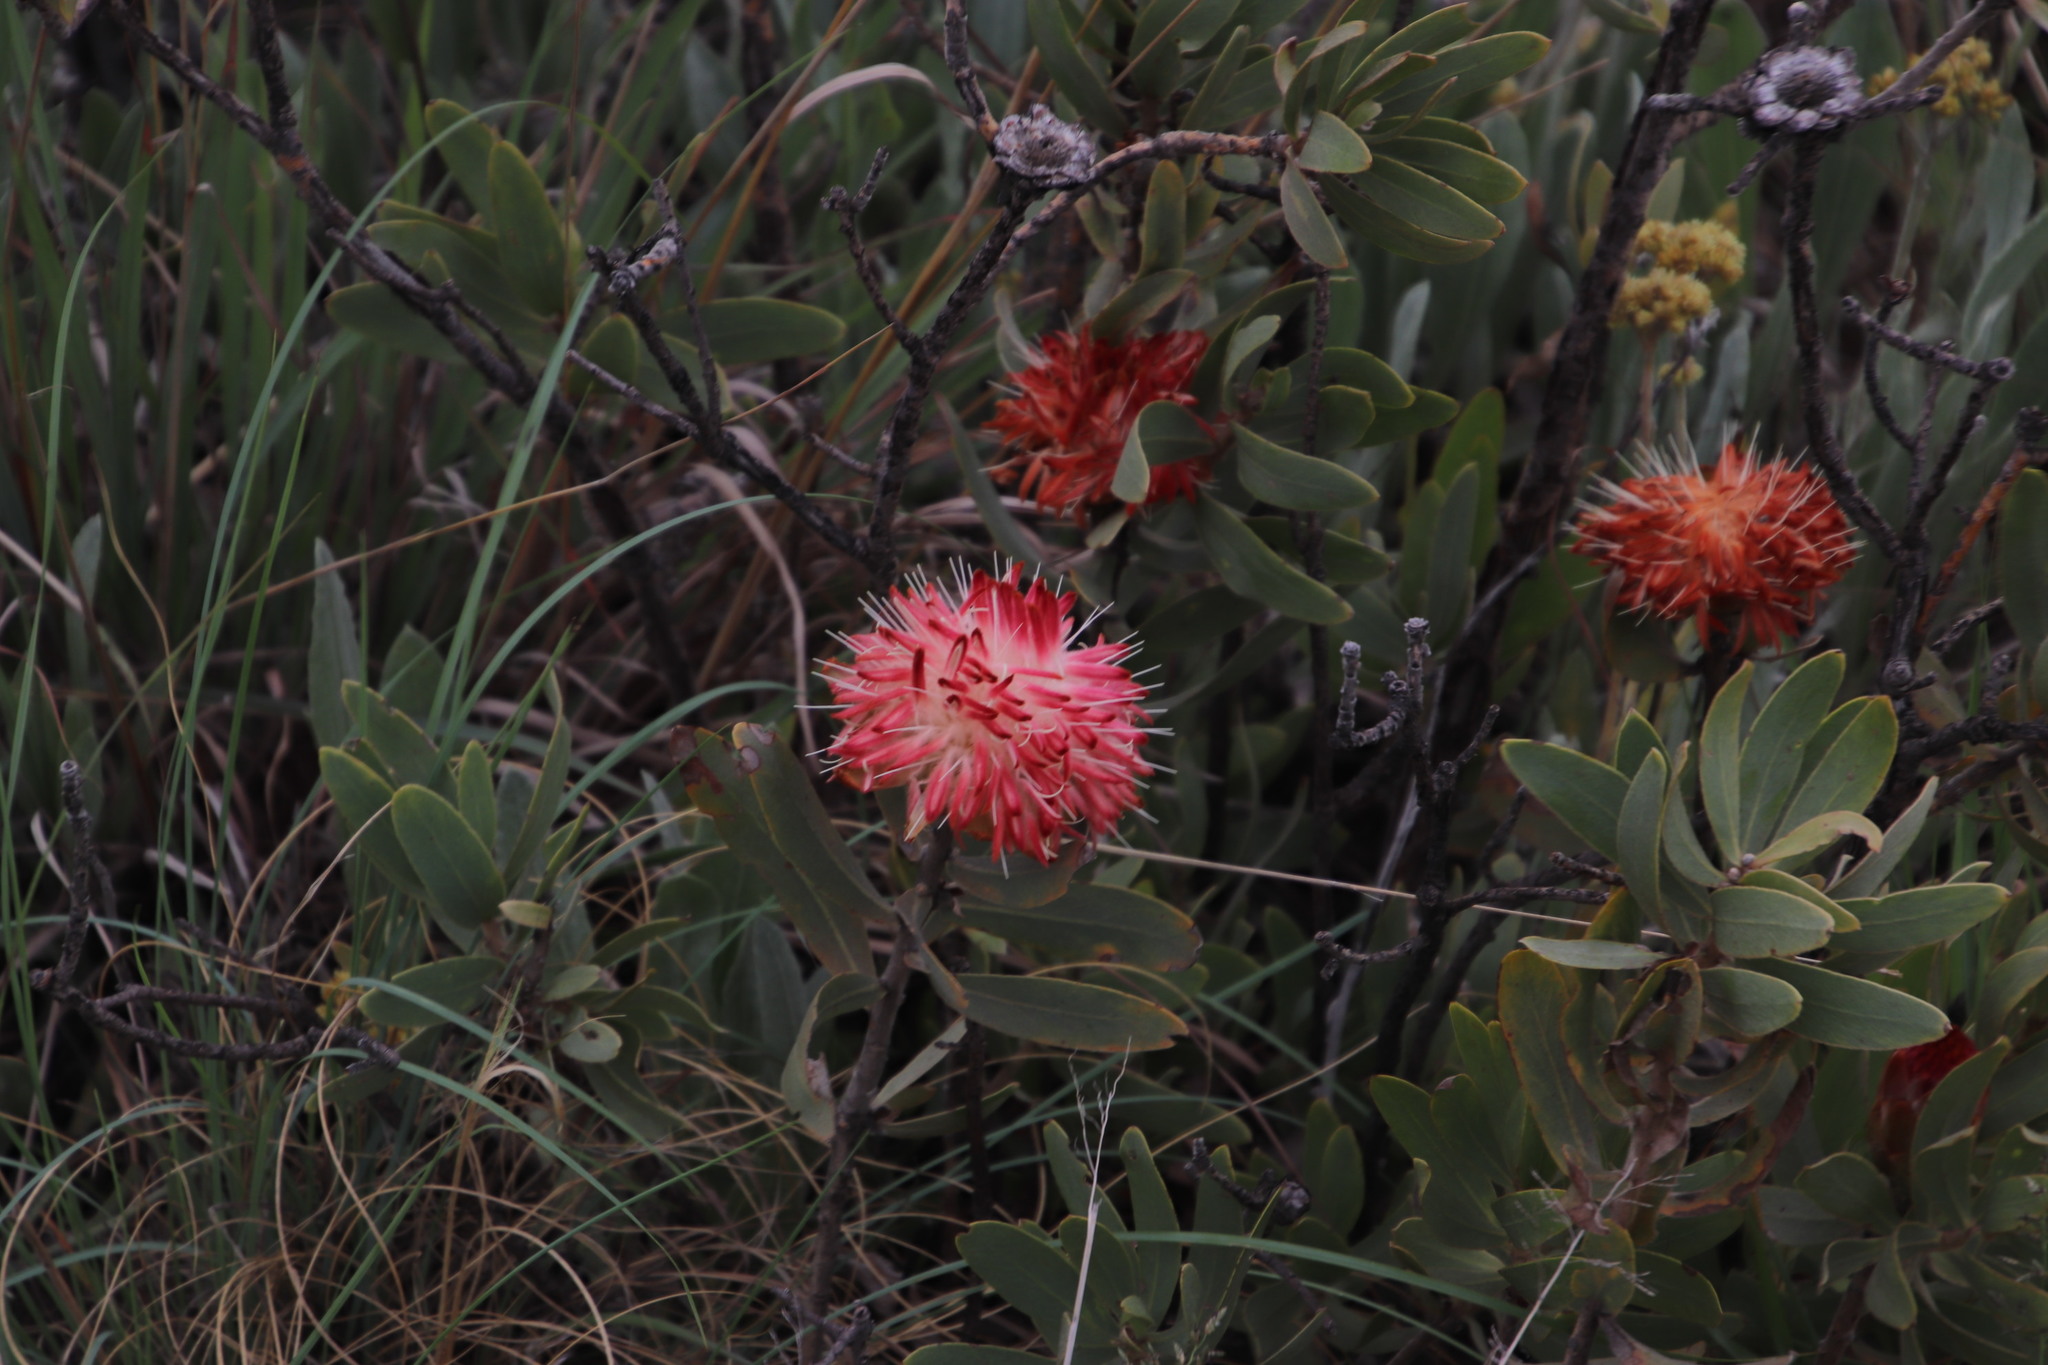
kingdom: Plantae
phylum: Tracheophyta
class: Magnoliopsida
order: Proteales
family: Proteaceae
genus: Protea
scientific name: Protea welwitschii
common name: Cluster-head protea
